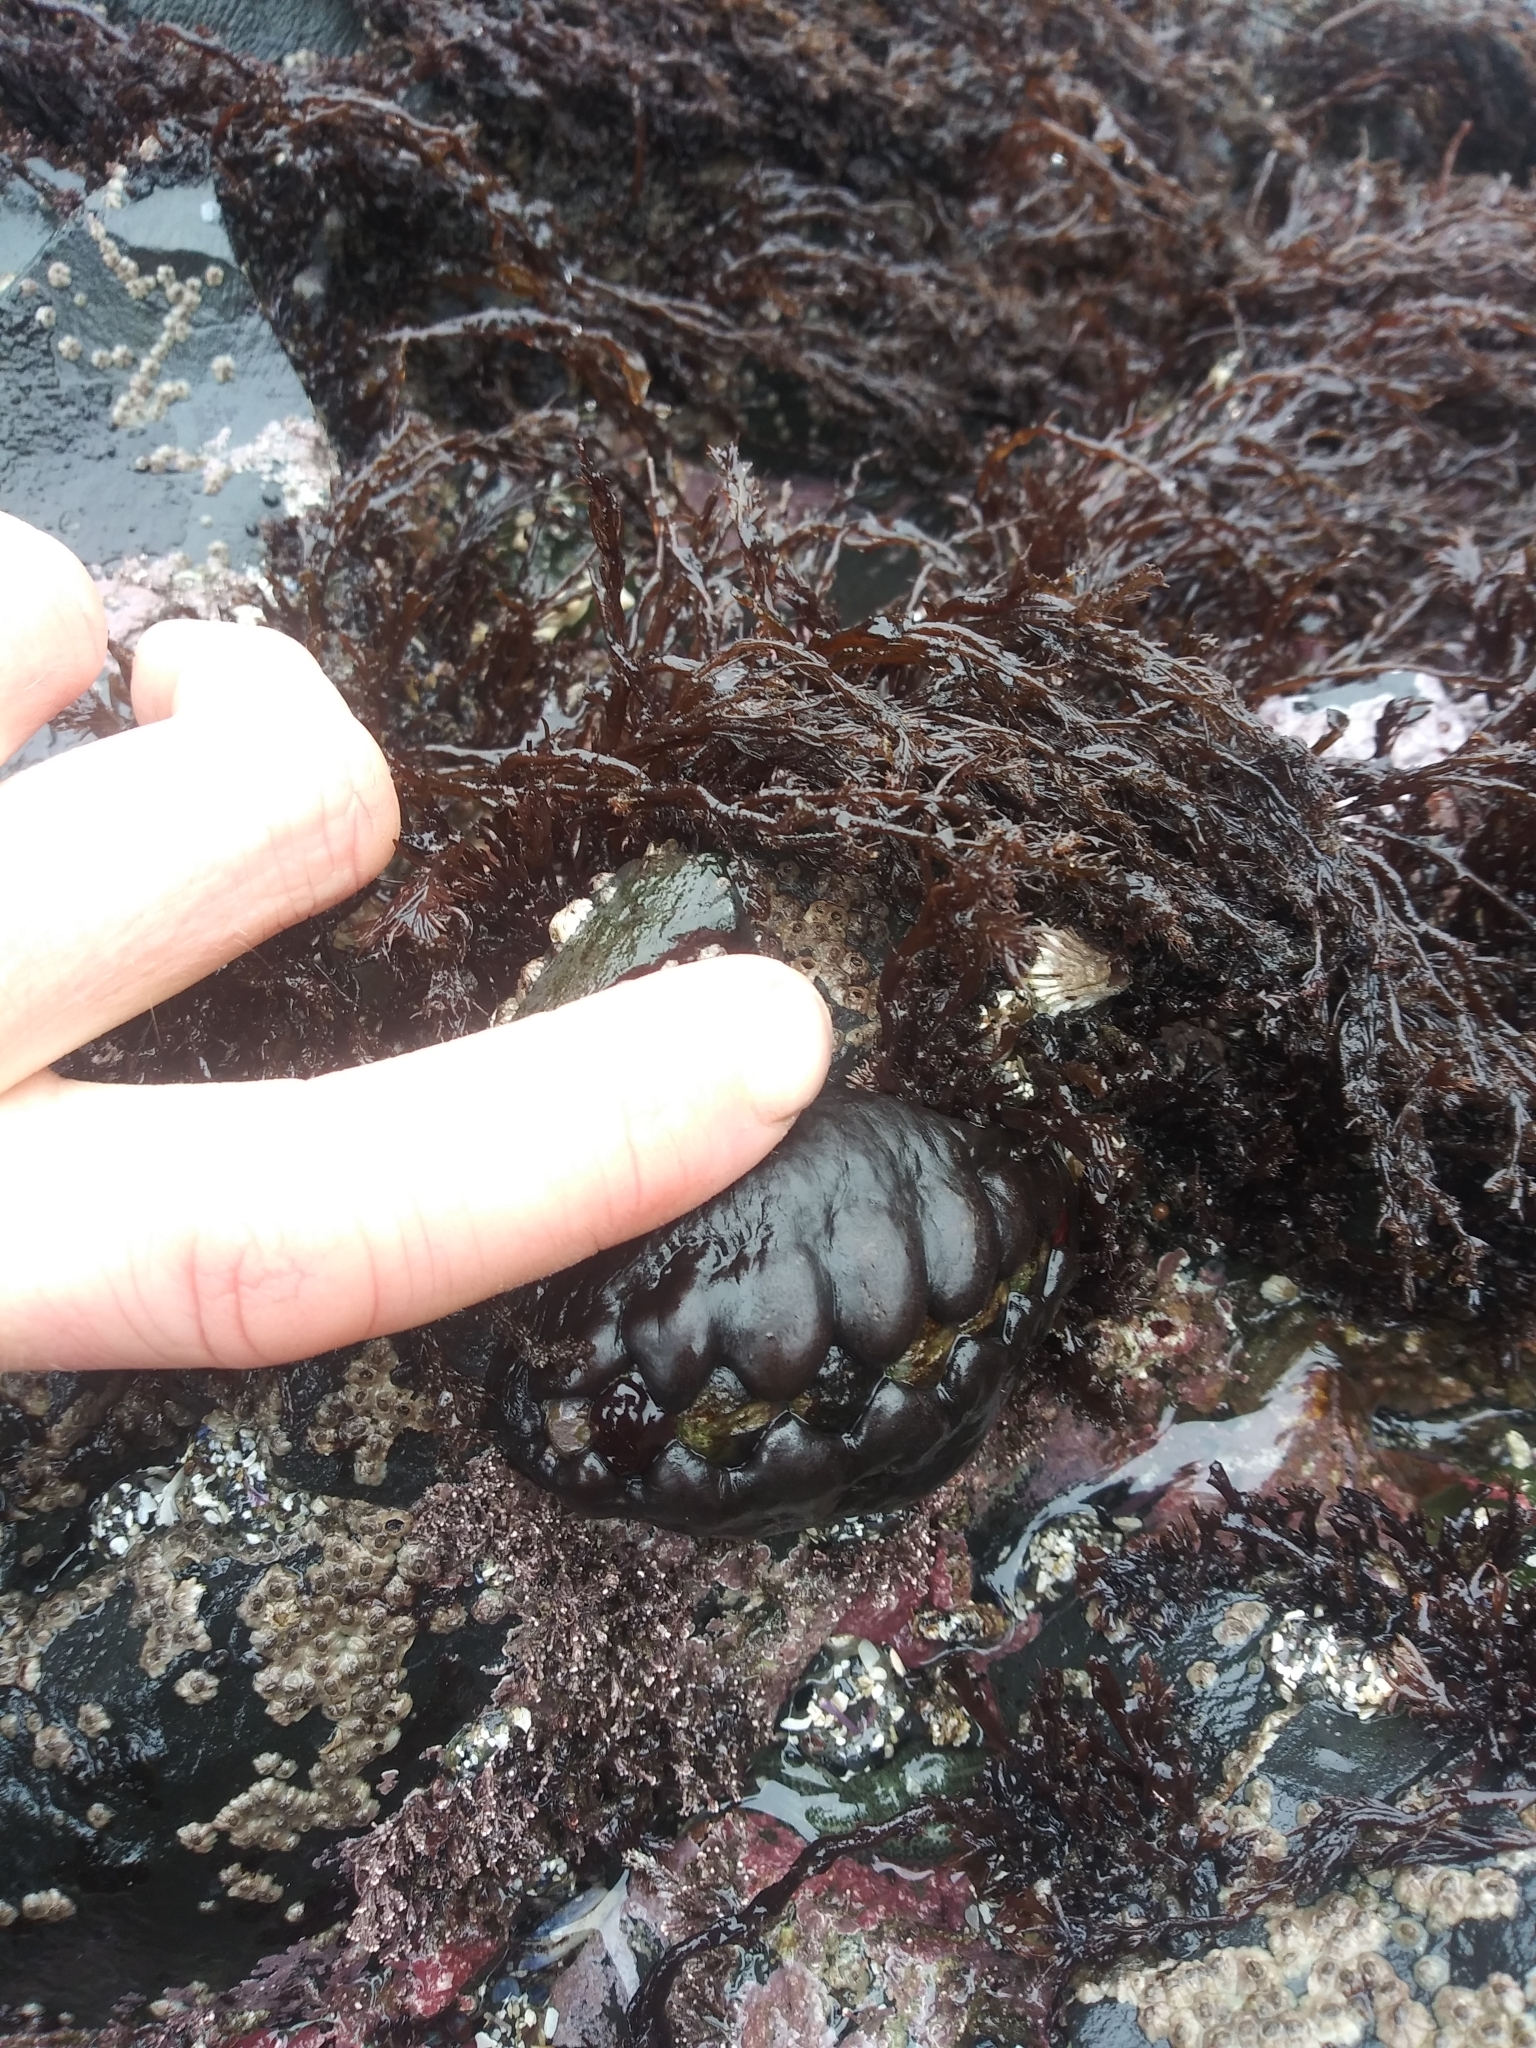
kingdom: Animalia
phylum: Mollusca
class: Polyplacophora
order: Chitonida
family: Mopaliidae
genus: Katharina
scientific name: Katharina tunicata
